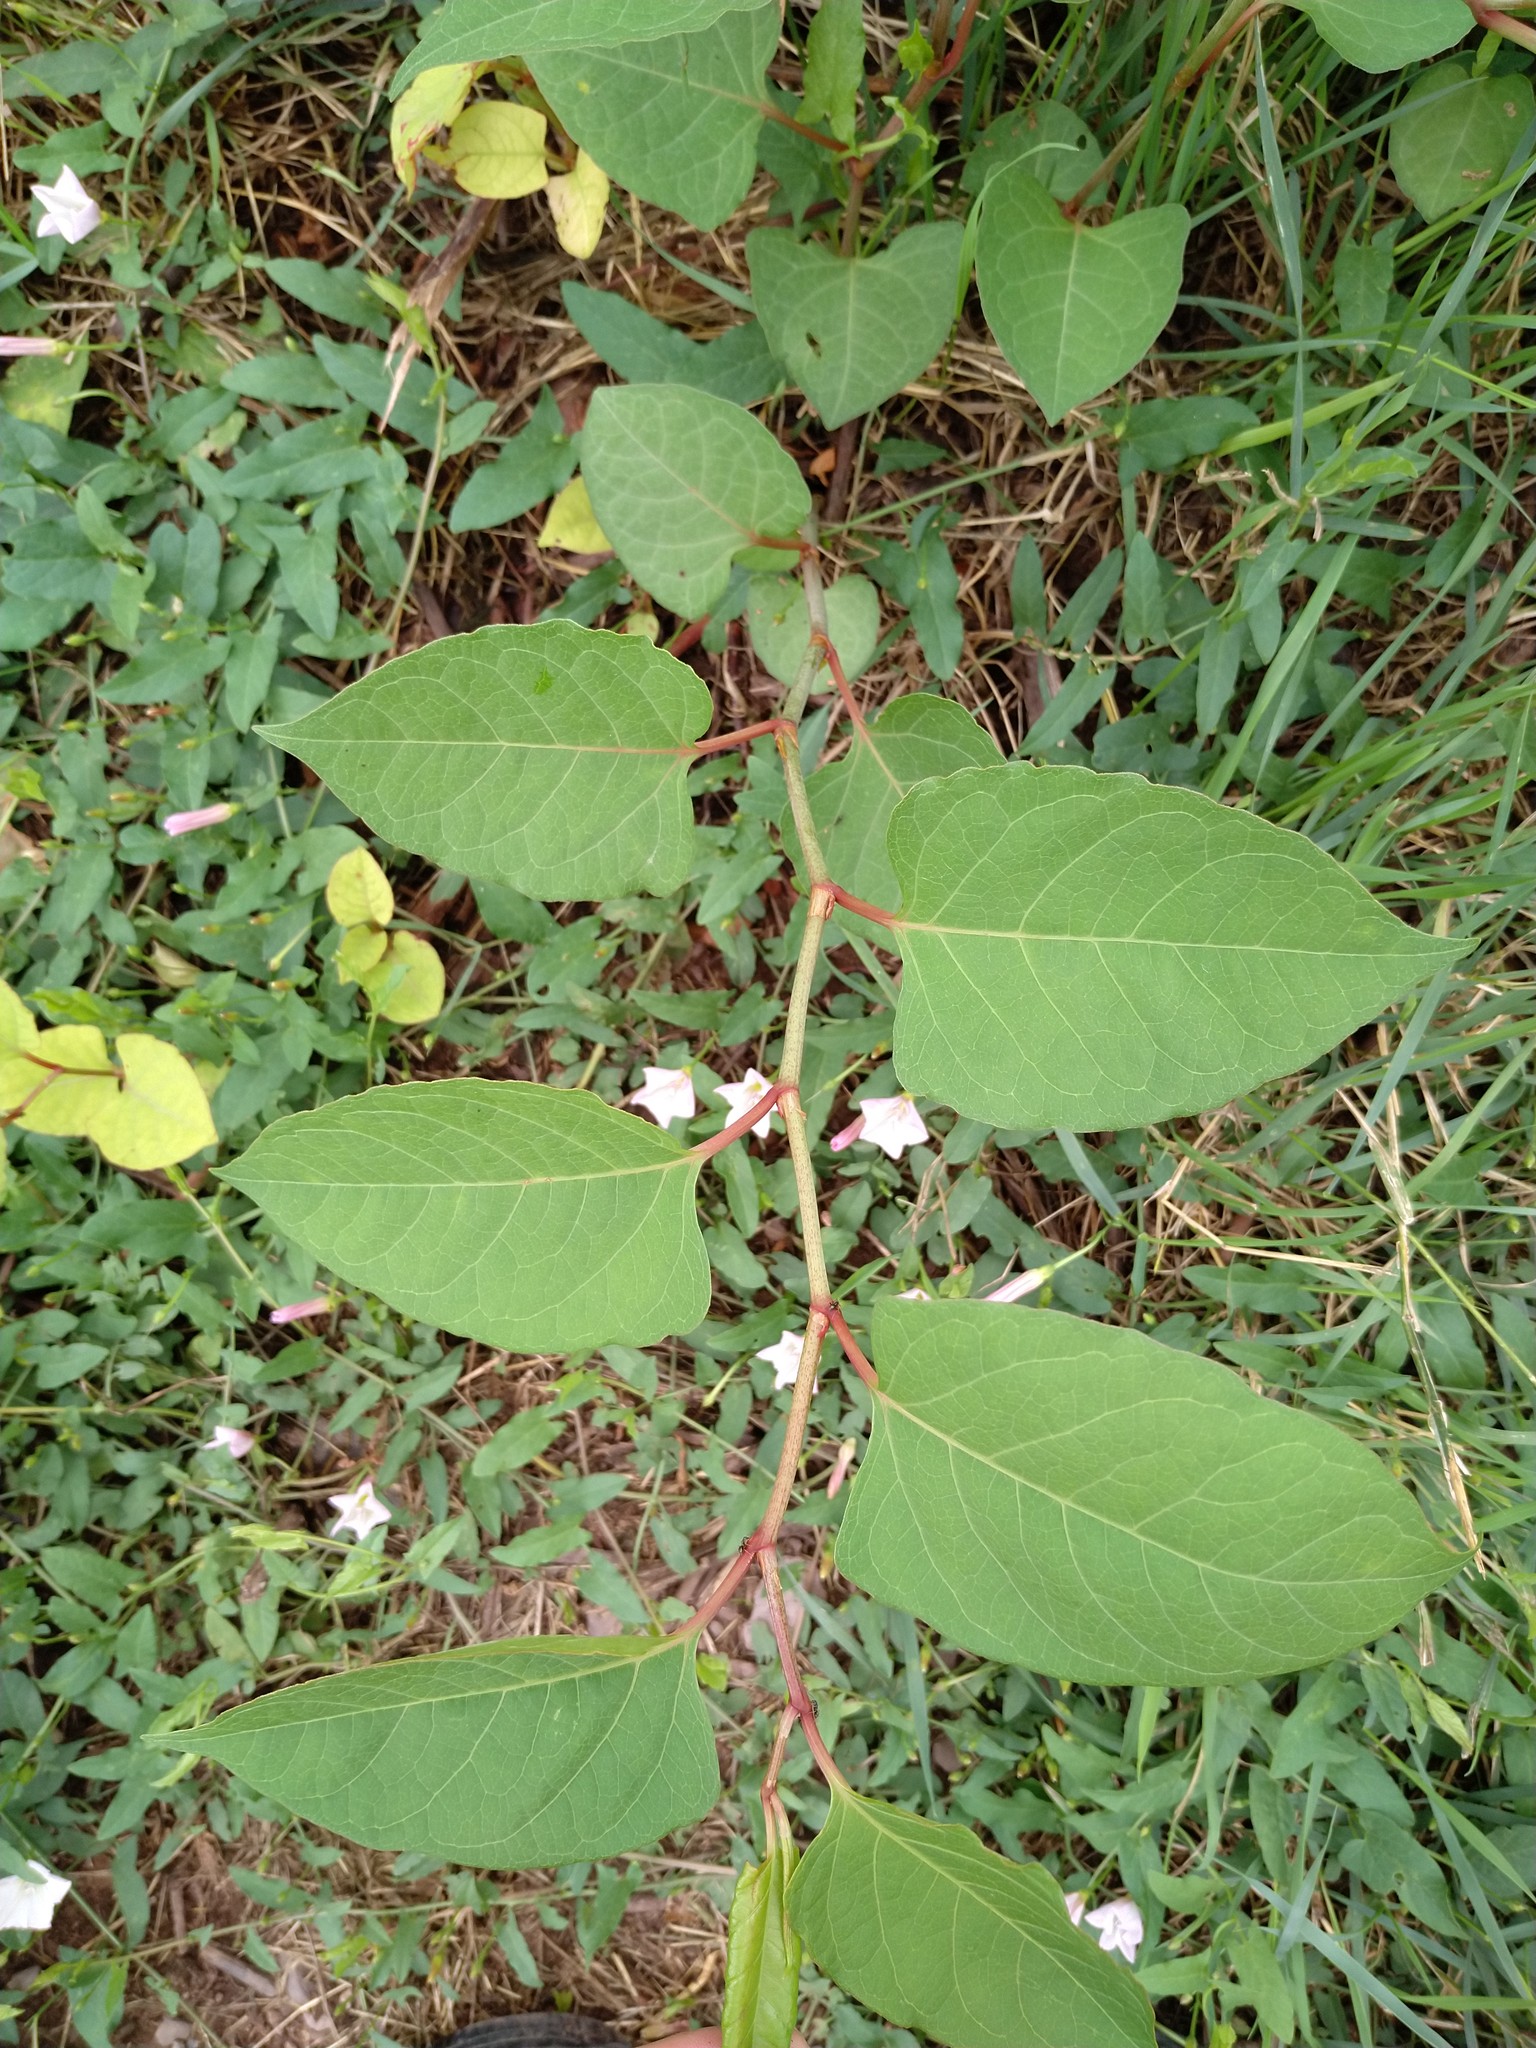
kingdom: Plantae
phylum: Tracheophyta
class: Magnoliopsida
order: Caryophyllales
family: Polygonaceae
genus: Reynoutria
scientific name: Reynoutria japonica
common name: Japanese knotweed
